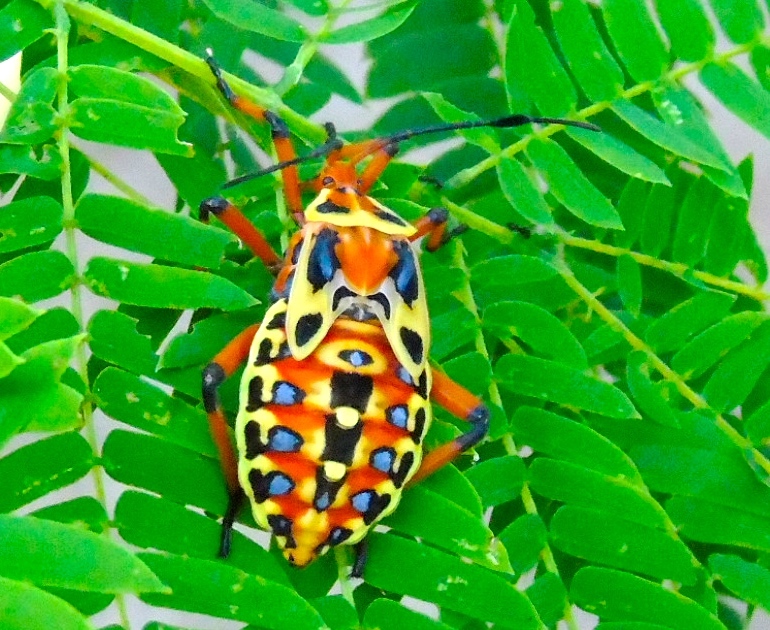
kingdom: Animalia
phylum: Arthropoda
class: Insecta
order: Hemiptera
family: Coreidae
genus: Pachylis
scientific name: Pachylis nervosus
